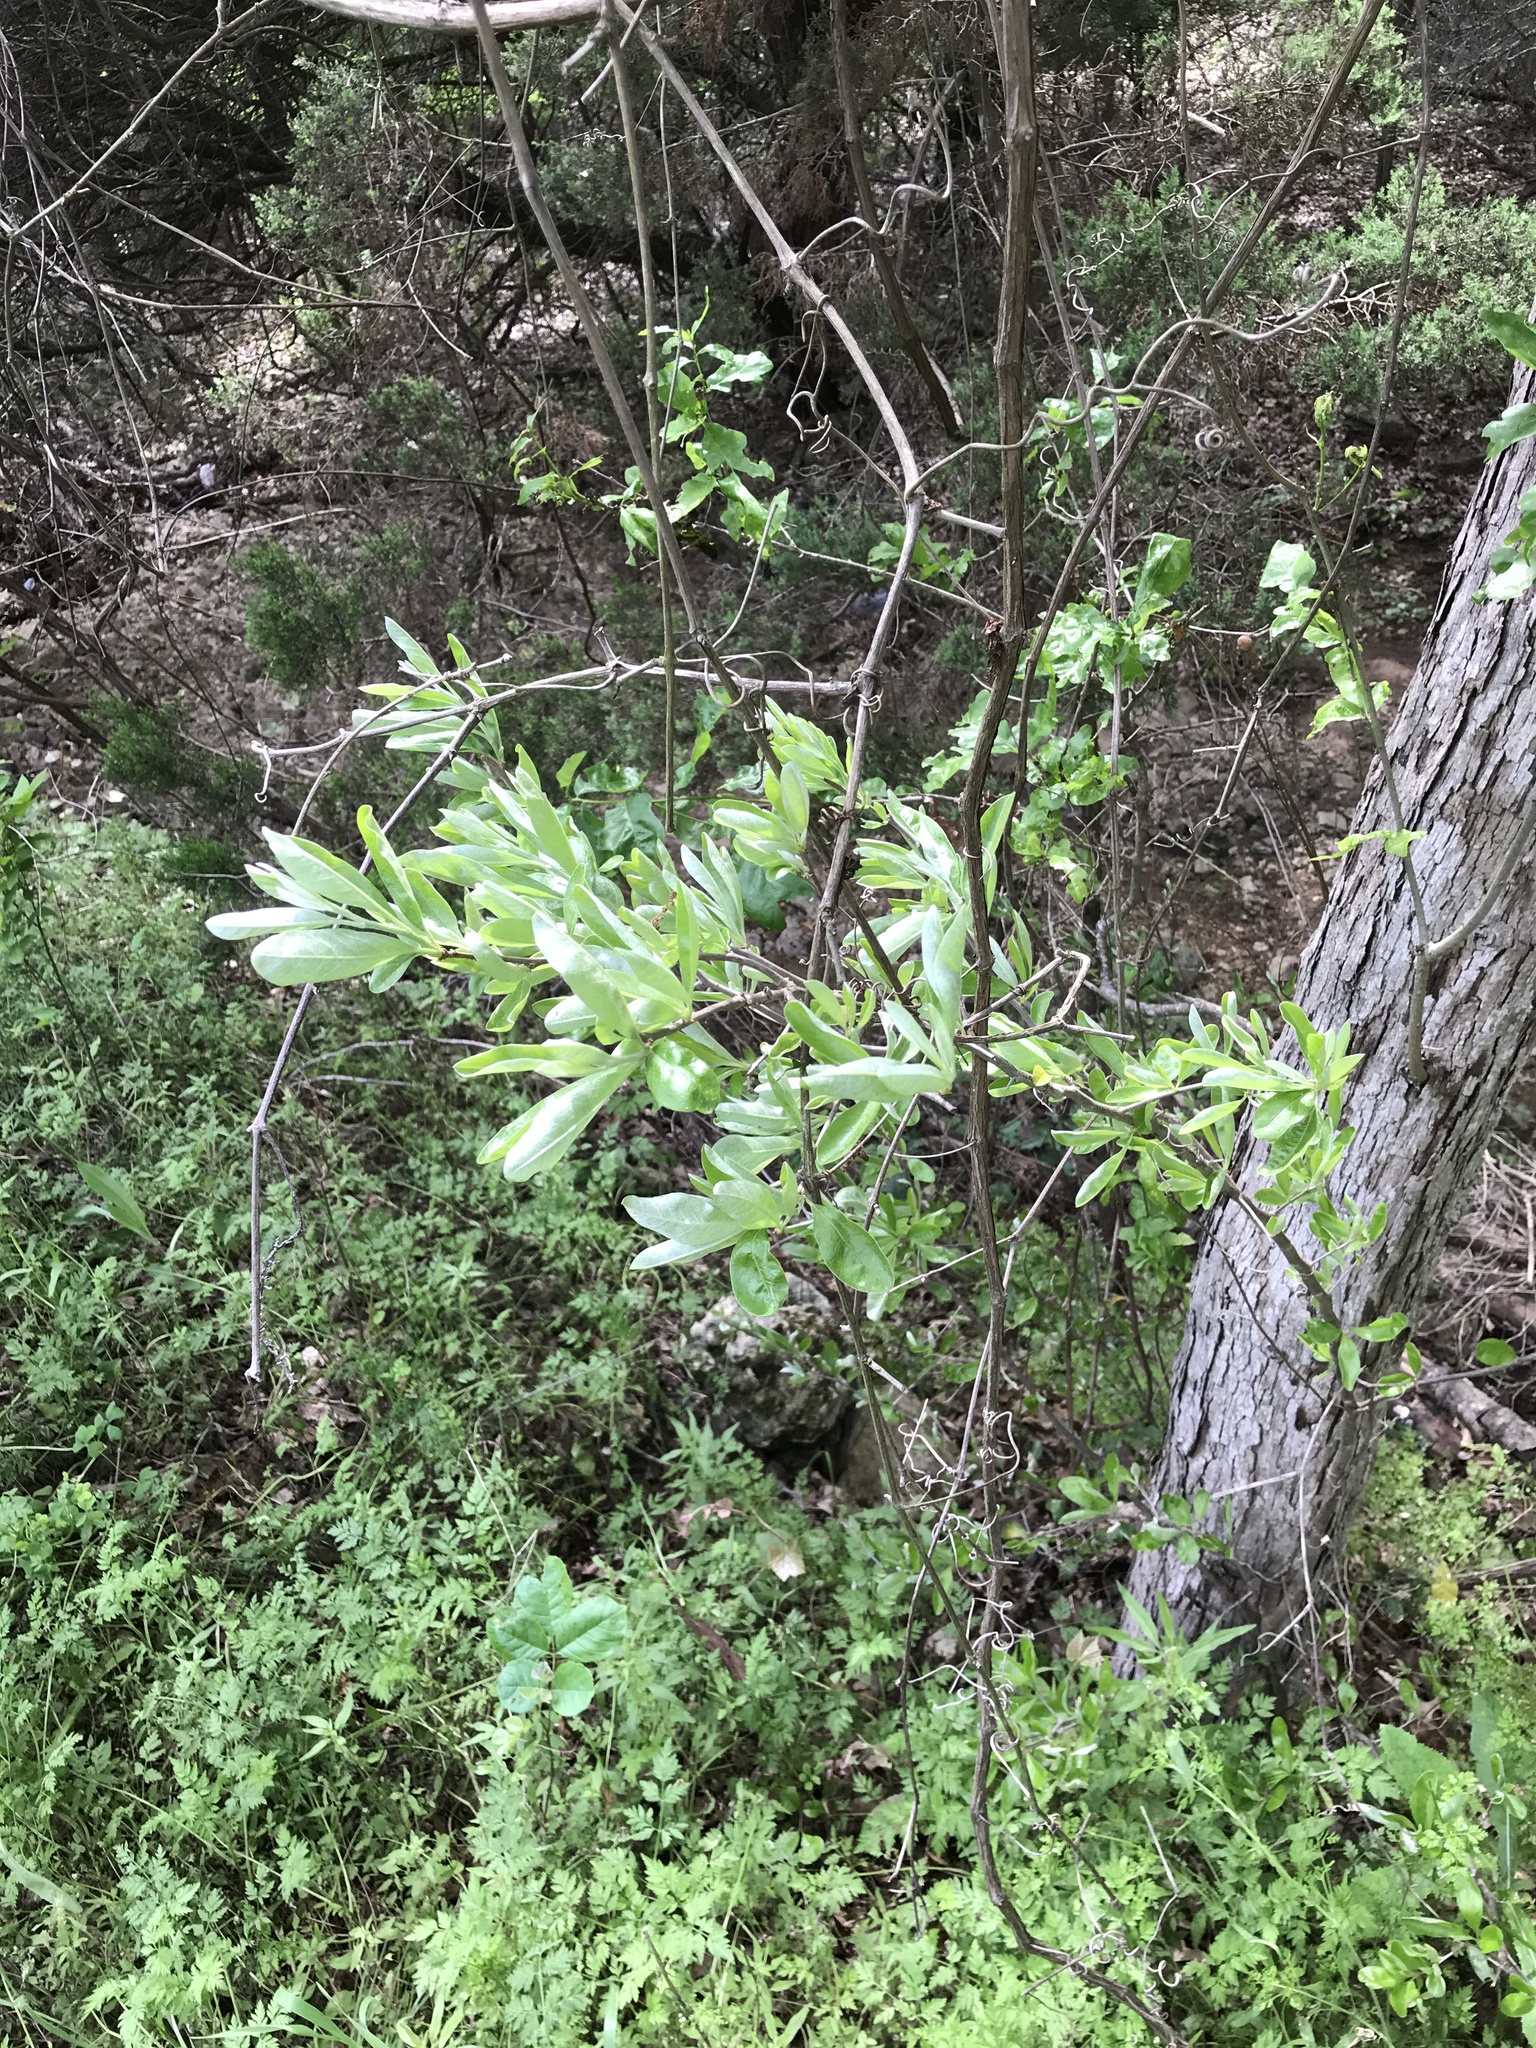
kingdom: Plantae
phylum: Tracheophyta
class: Magnoliopsida
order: Ericales
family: Sapotaceae
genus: Sideroxylon
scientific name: Sideroxylon lanuginosum
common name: Chittamwood
